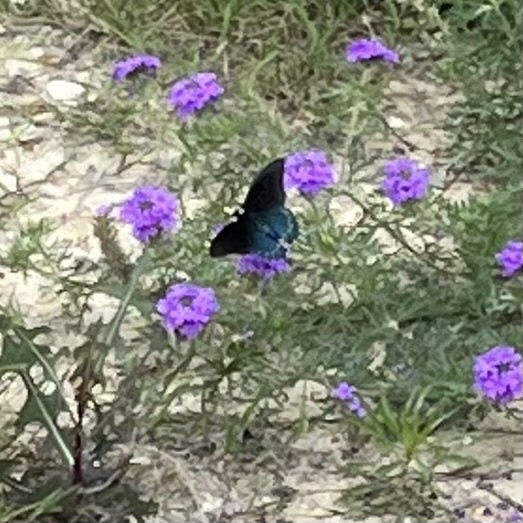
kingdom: Animalia
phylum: Arthropoda
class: Insecta
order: Lepidoptera
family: Papilionidae
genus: Battus
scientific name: Battus philenor
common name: Pipevine swallowtail
